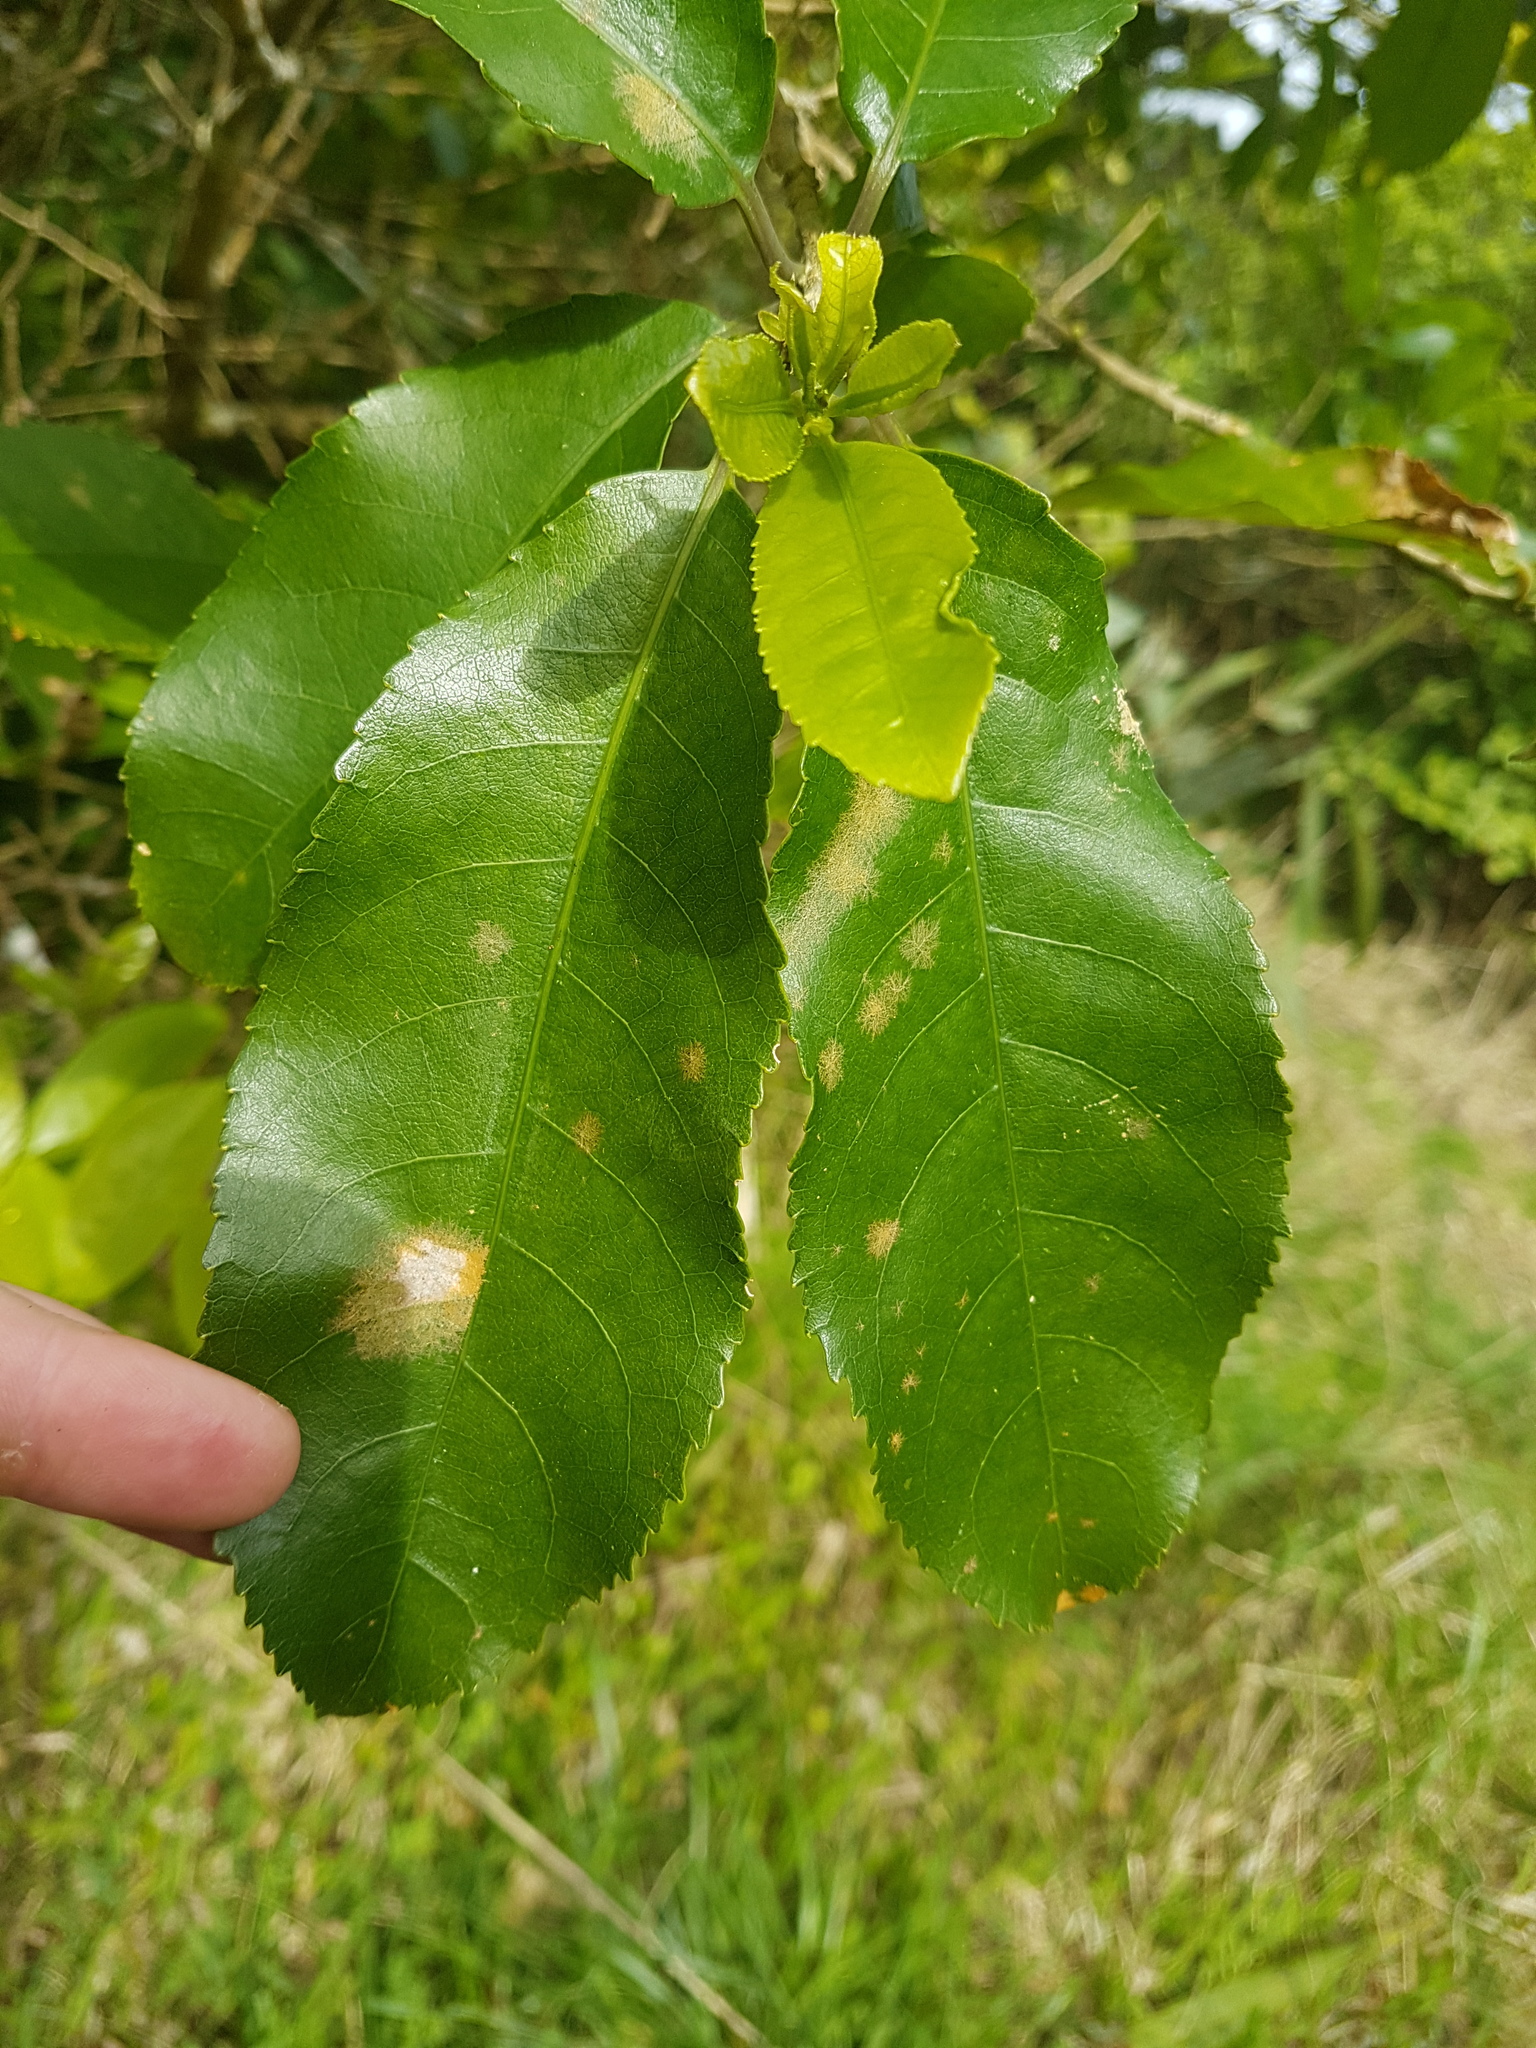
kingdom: Plantae
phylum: Tracheophyta
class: Magnoliopsida
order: Malpighiales
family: Violaceae
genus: Melicytus
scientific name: Melicytus ramiflorus
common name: Mahoe
